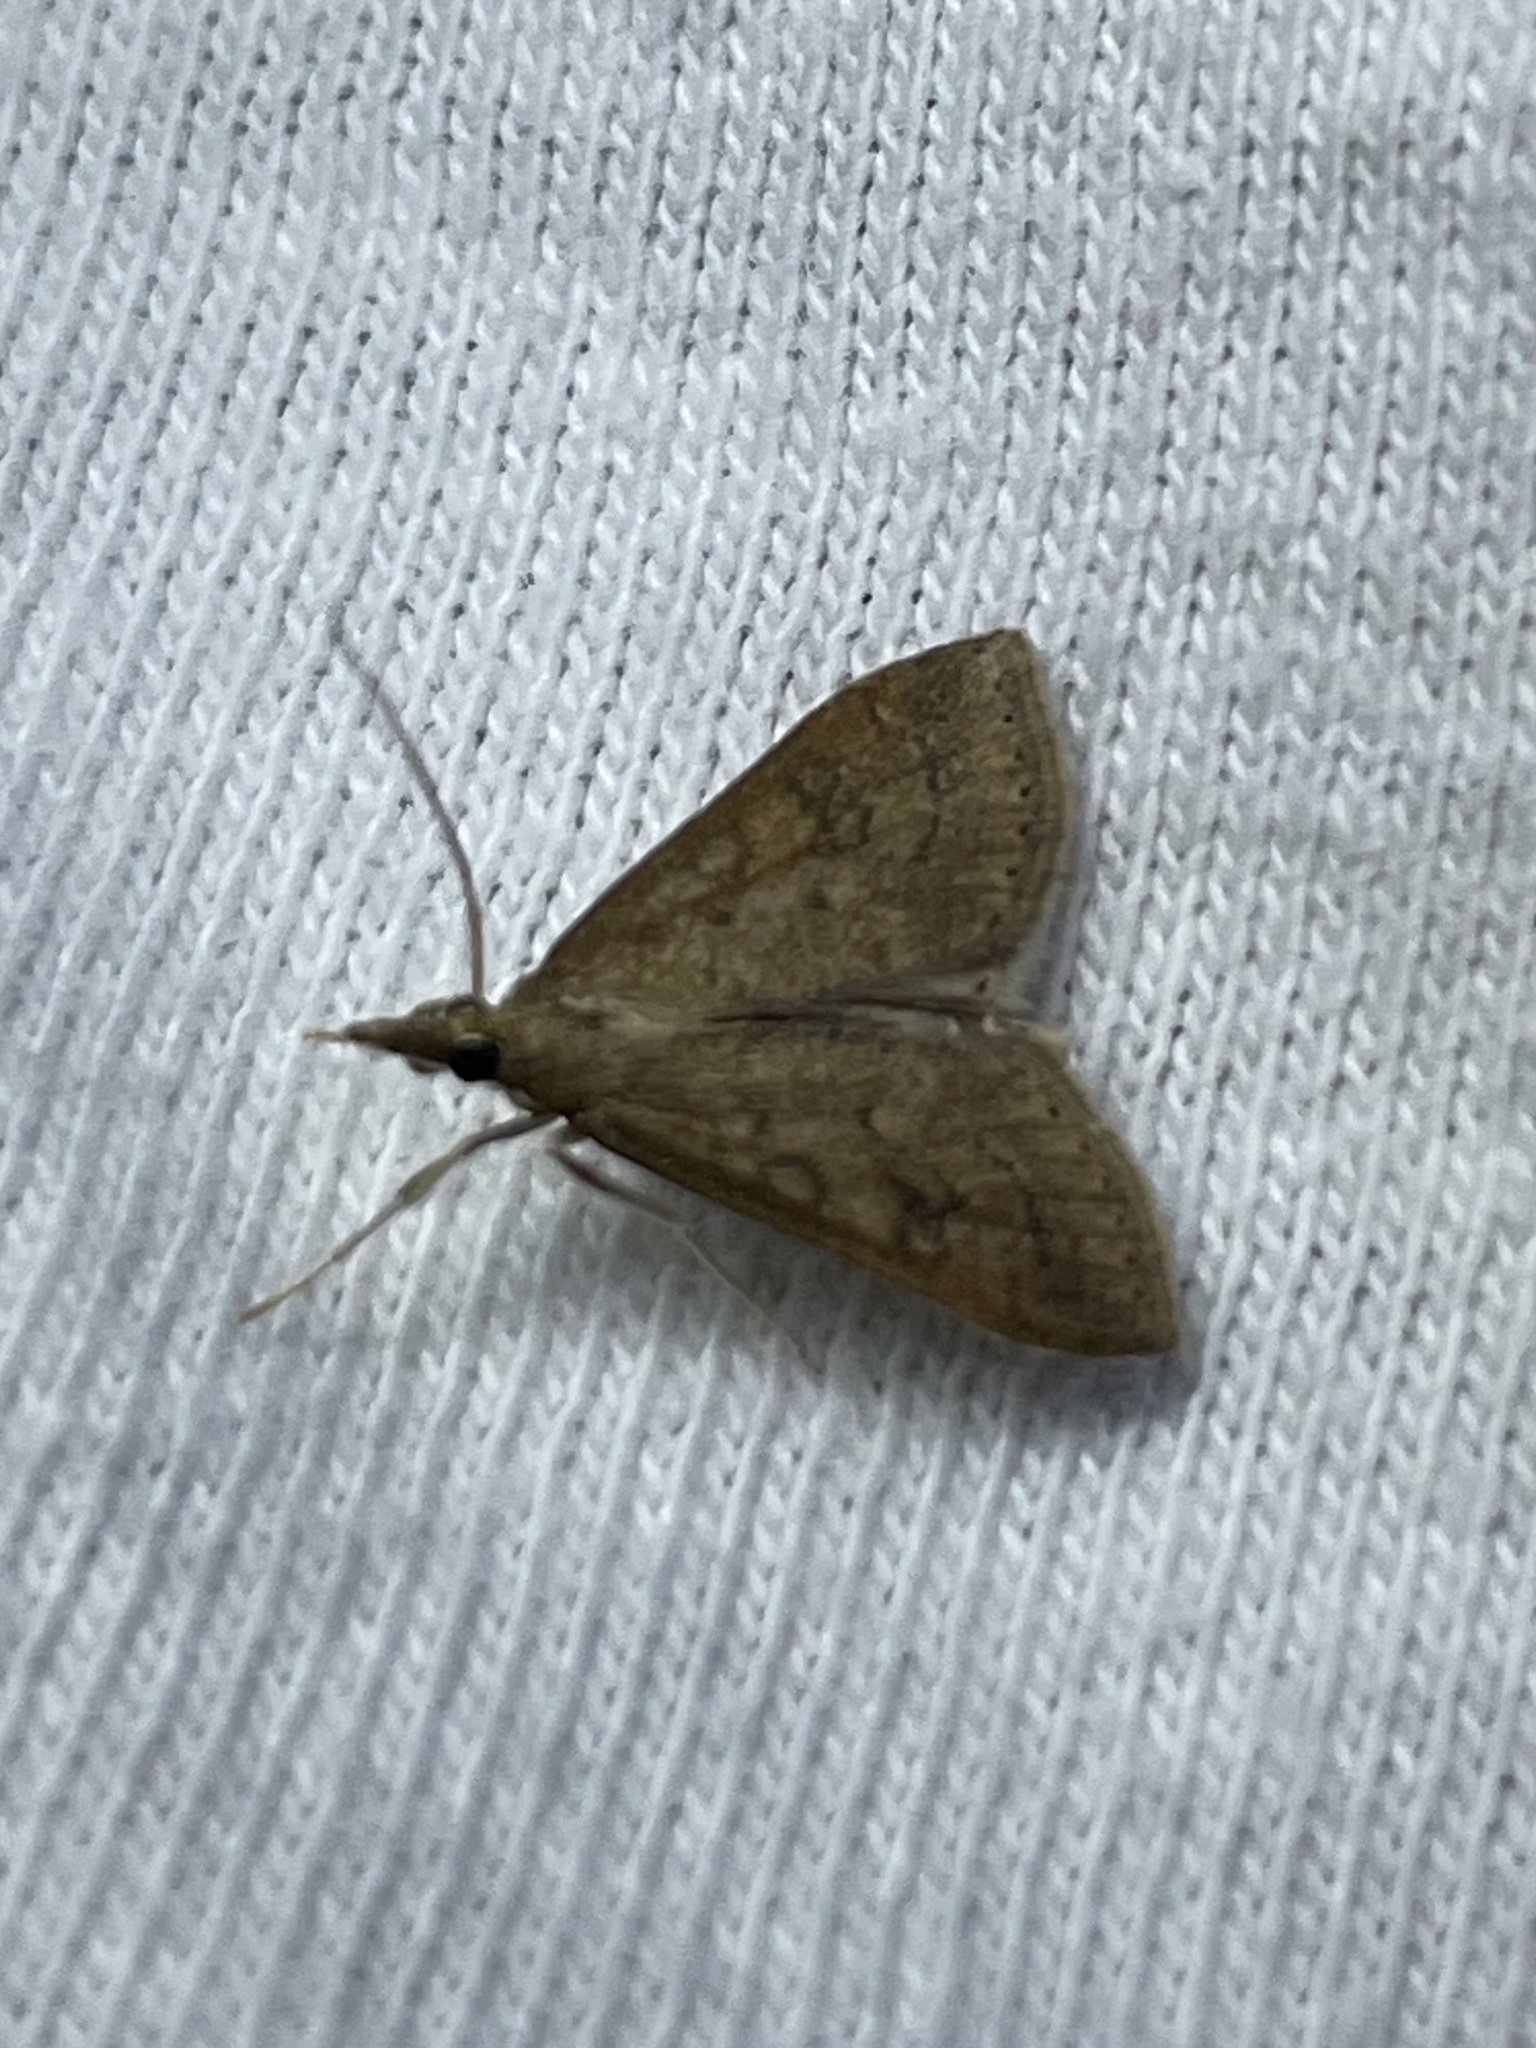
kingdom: Animalia
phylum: Arthropoda
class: Insecta
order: Lepidoptera
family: Crambidae
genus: Udea
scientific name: Udea rubigalis
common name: Celery leaftier moth
